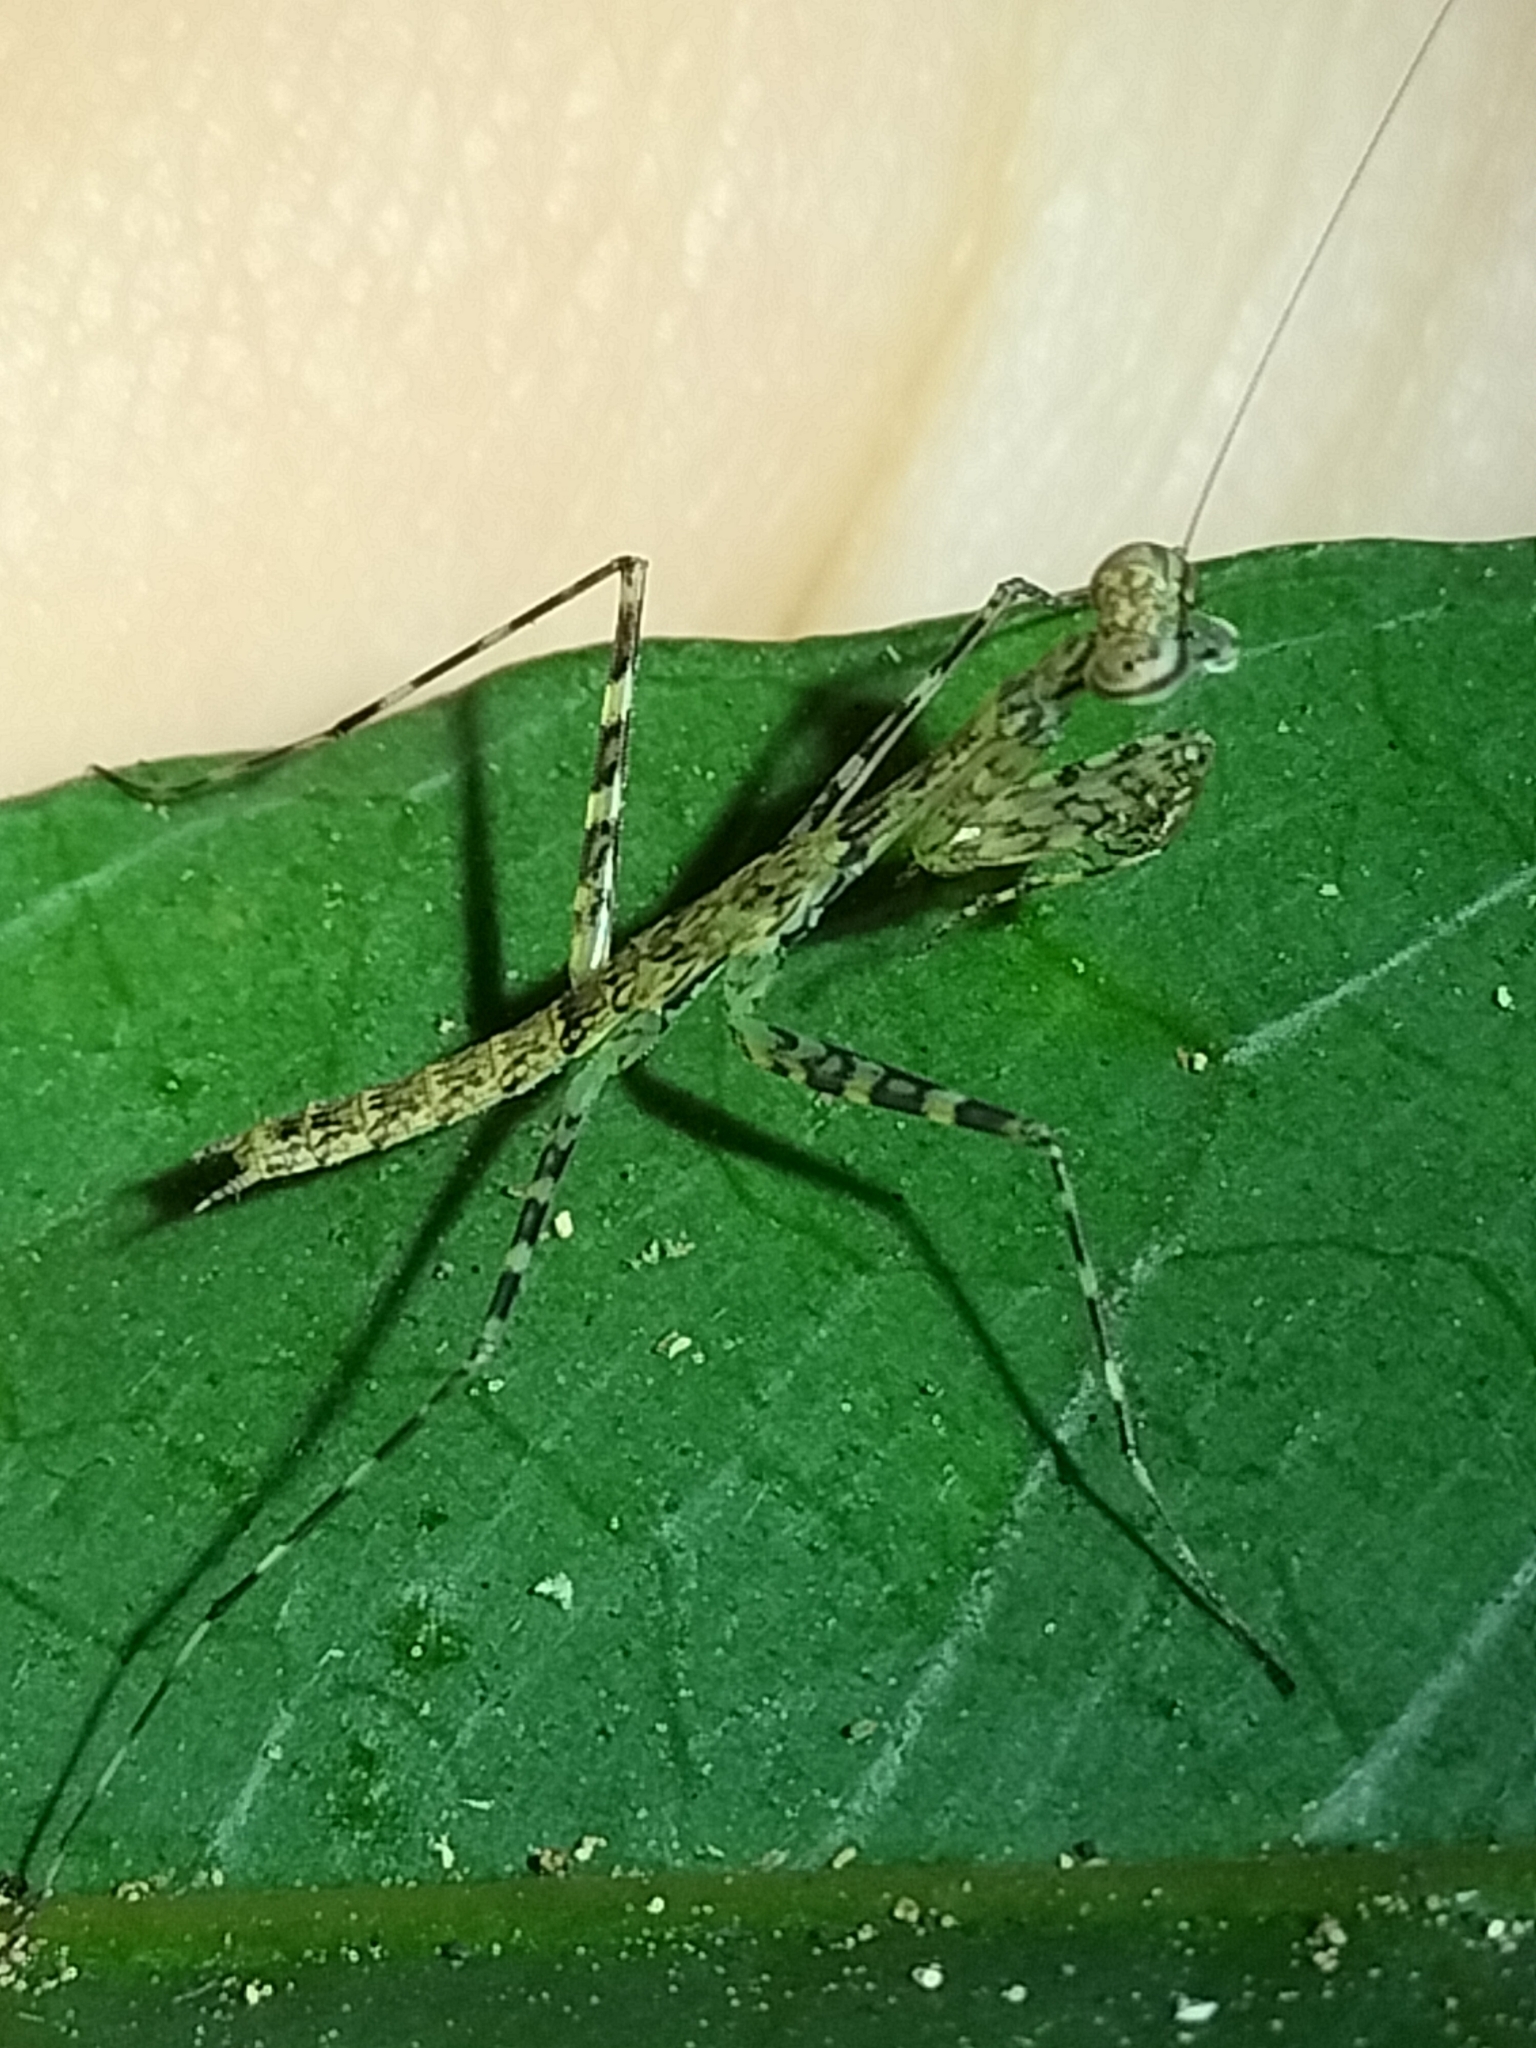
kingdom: Animalia
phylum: Arthropoda
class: Insecta
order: Mantodea
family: Nanomantidae
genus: Ciulfina
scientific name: Ciulfina rentzi
